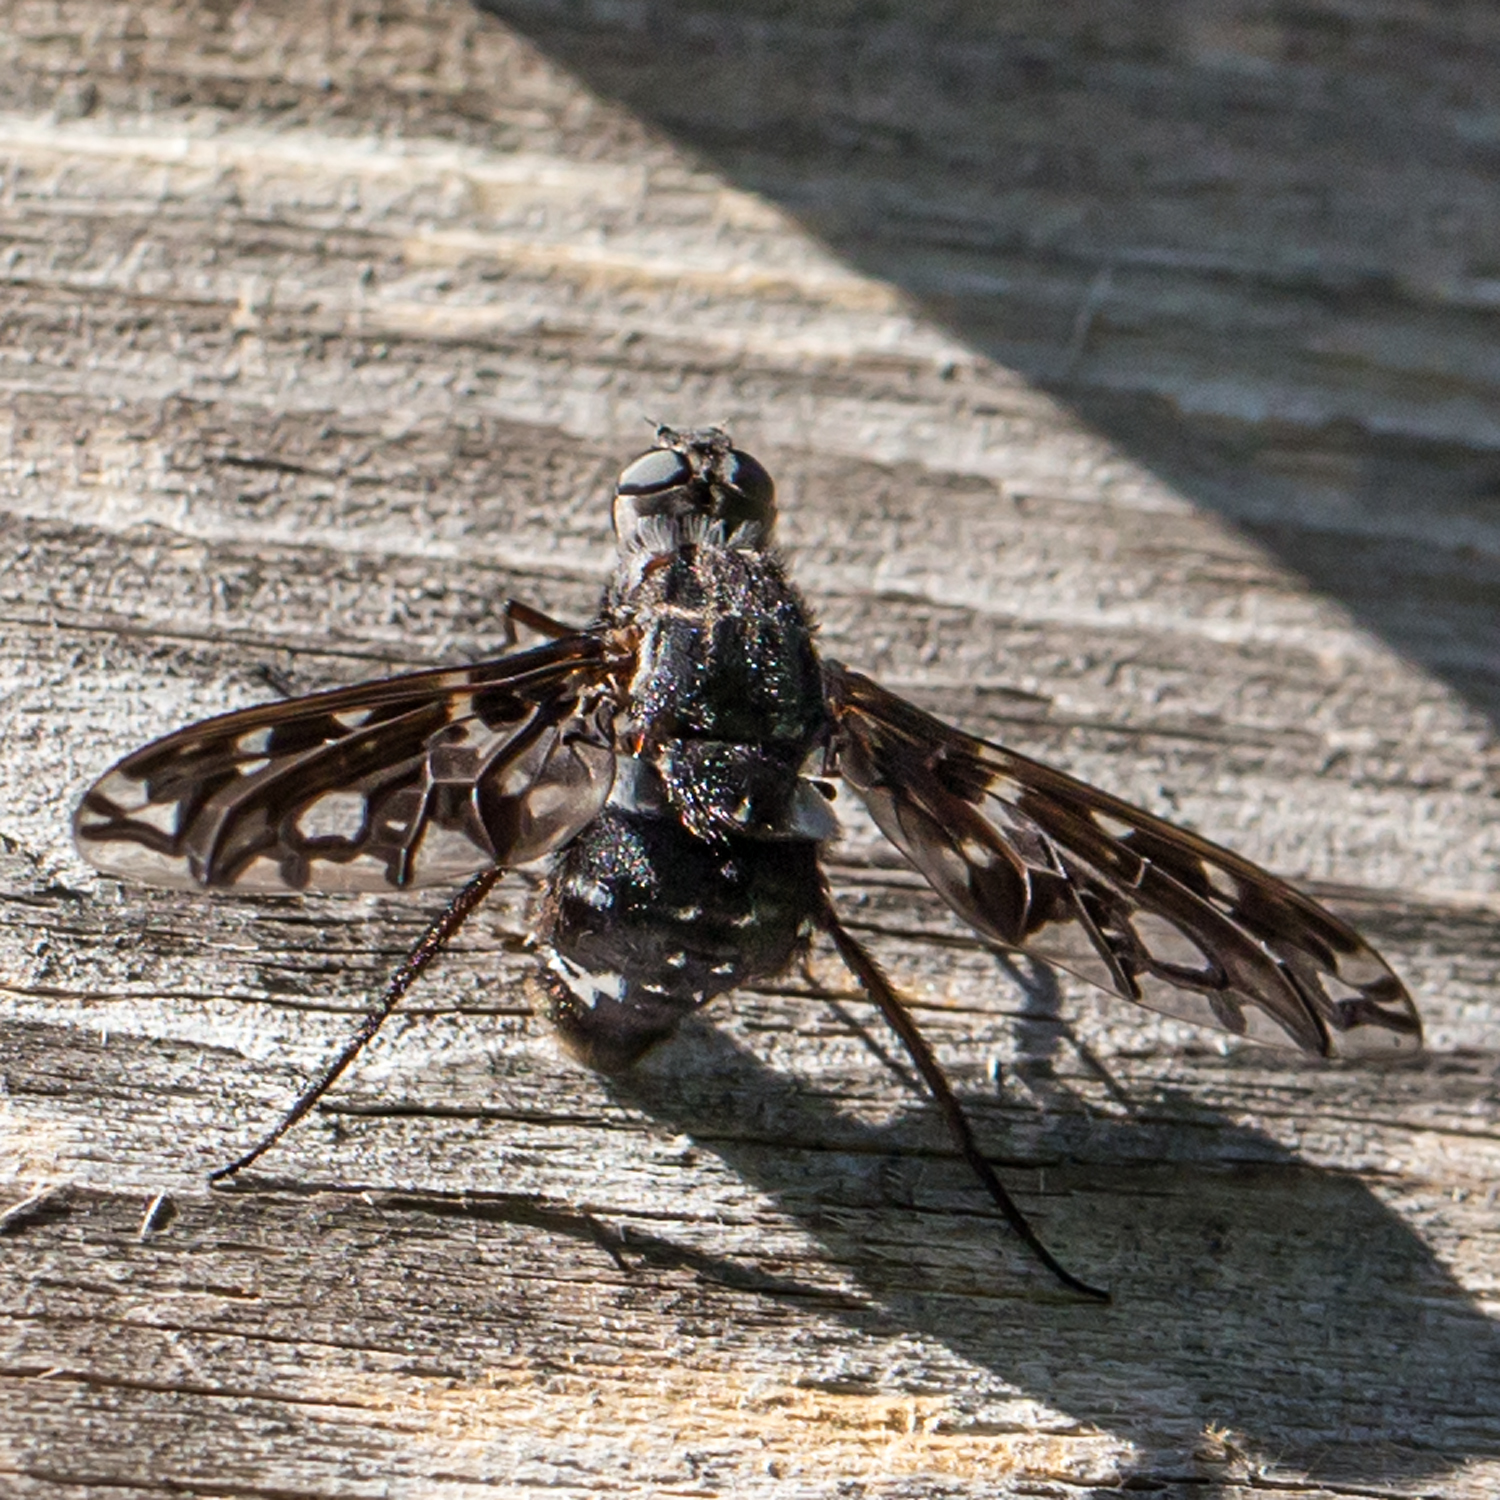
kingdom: Animalia
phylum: Arthropoda
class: Insecta
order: Diptera
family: Bombyliidae
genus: Xenox
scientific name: Xenox tigrinus
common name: Tiger bee fly
